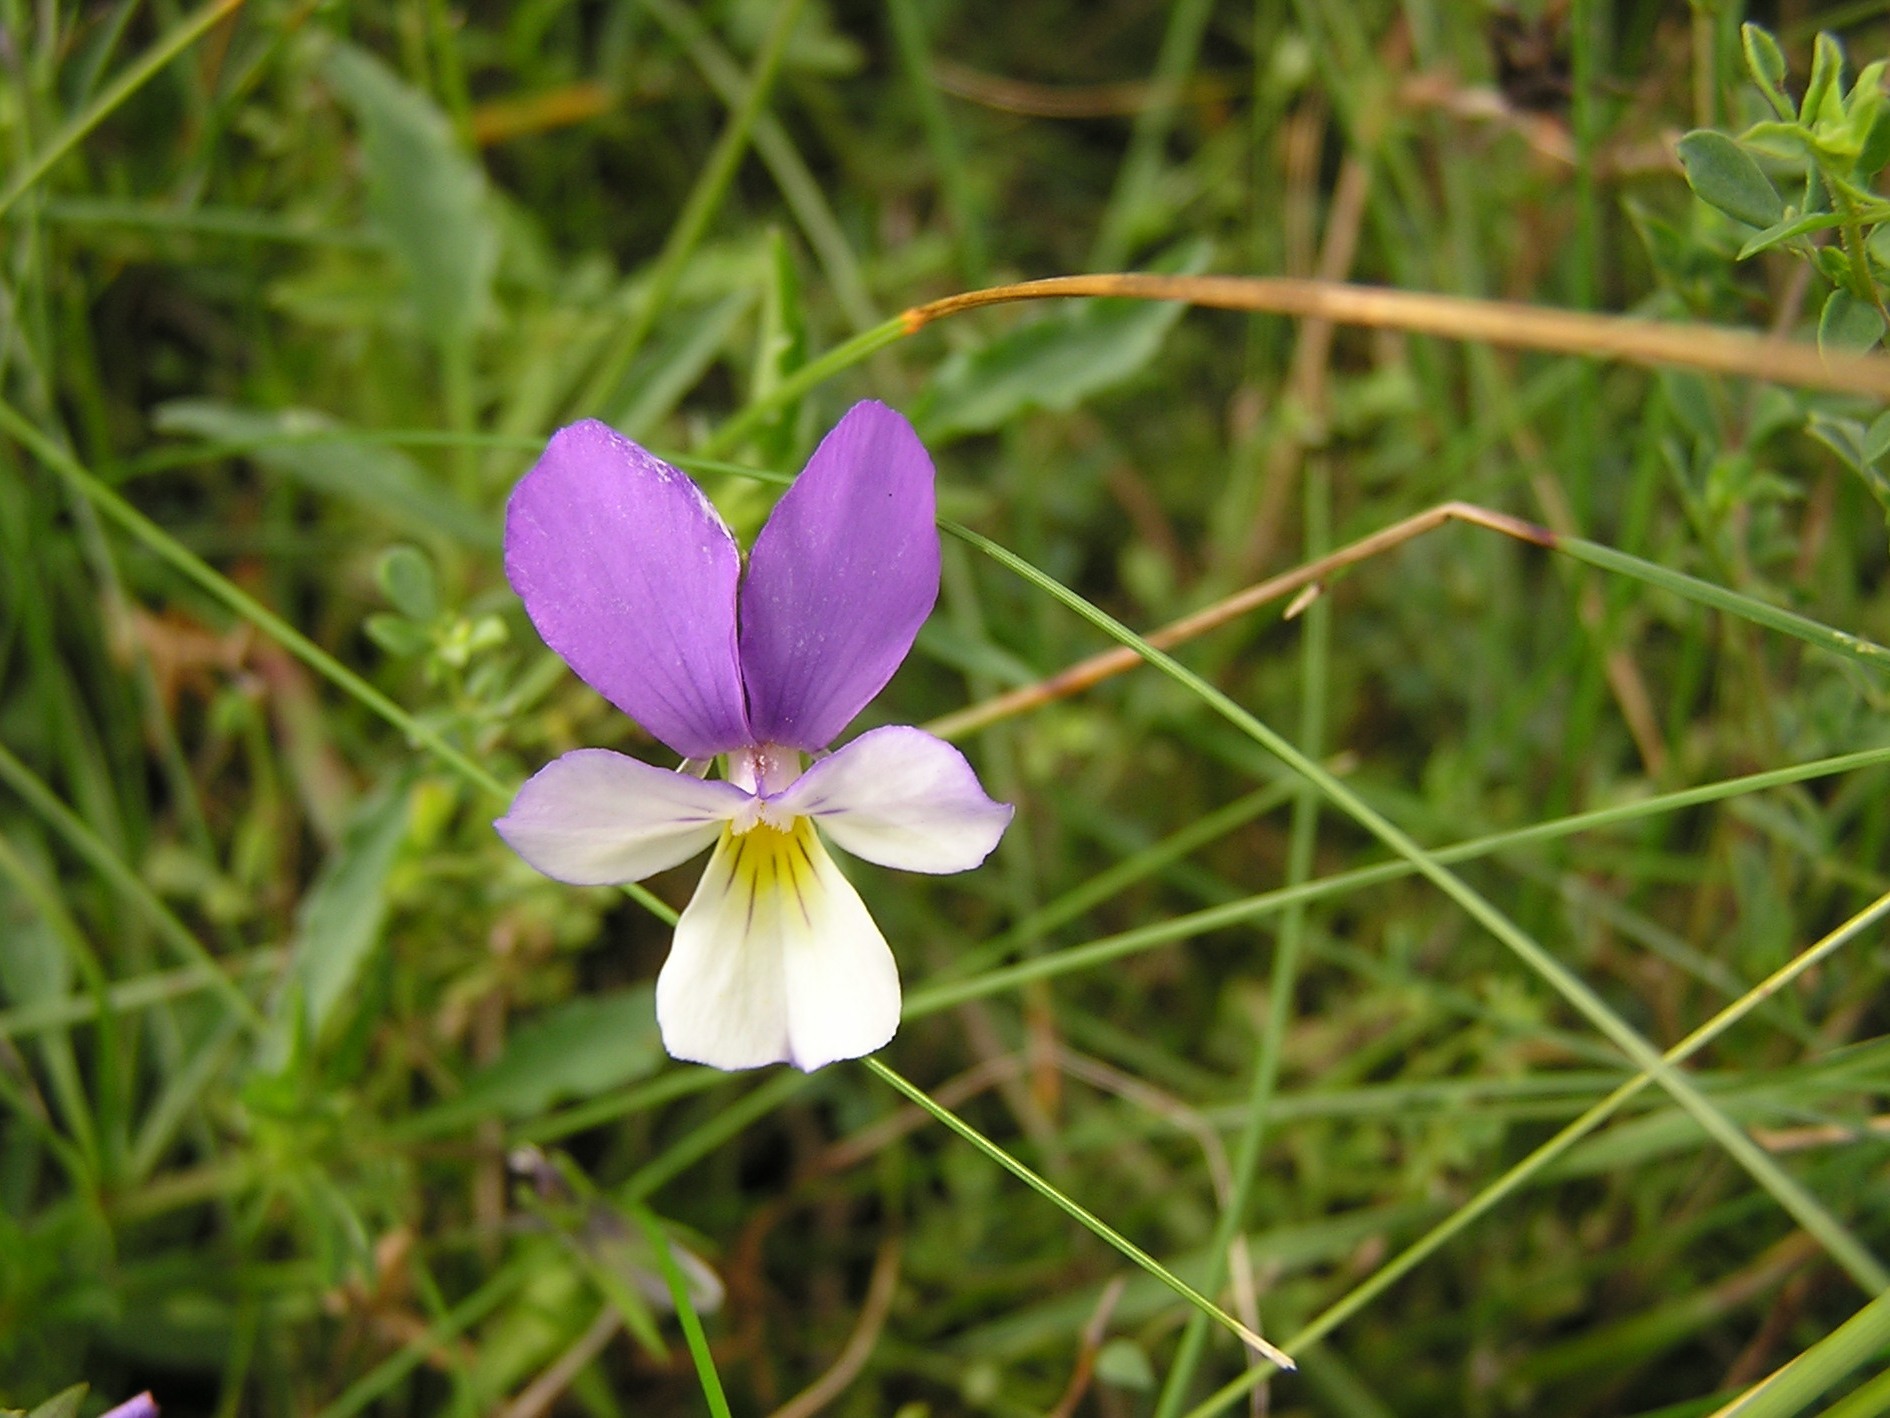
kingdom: Plantae
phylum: Tracheophyta
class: Magnoliopsida
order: Malpighiales
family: Violaceae
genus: Viola
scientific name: Viola tricolor
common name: Pansy
